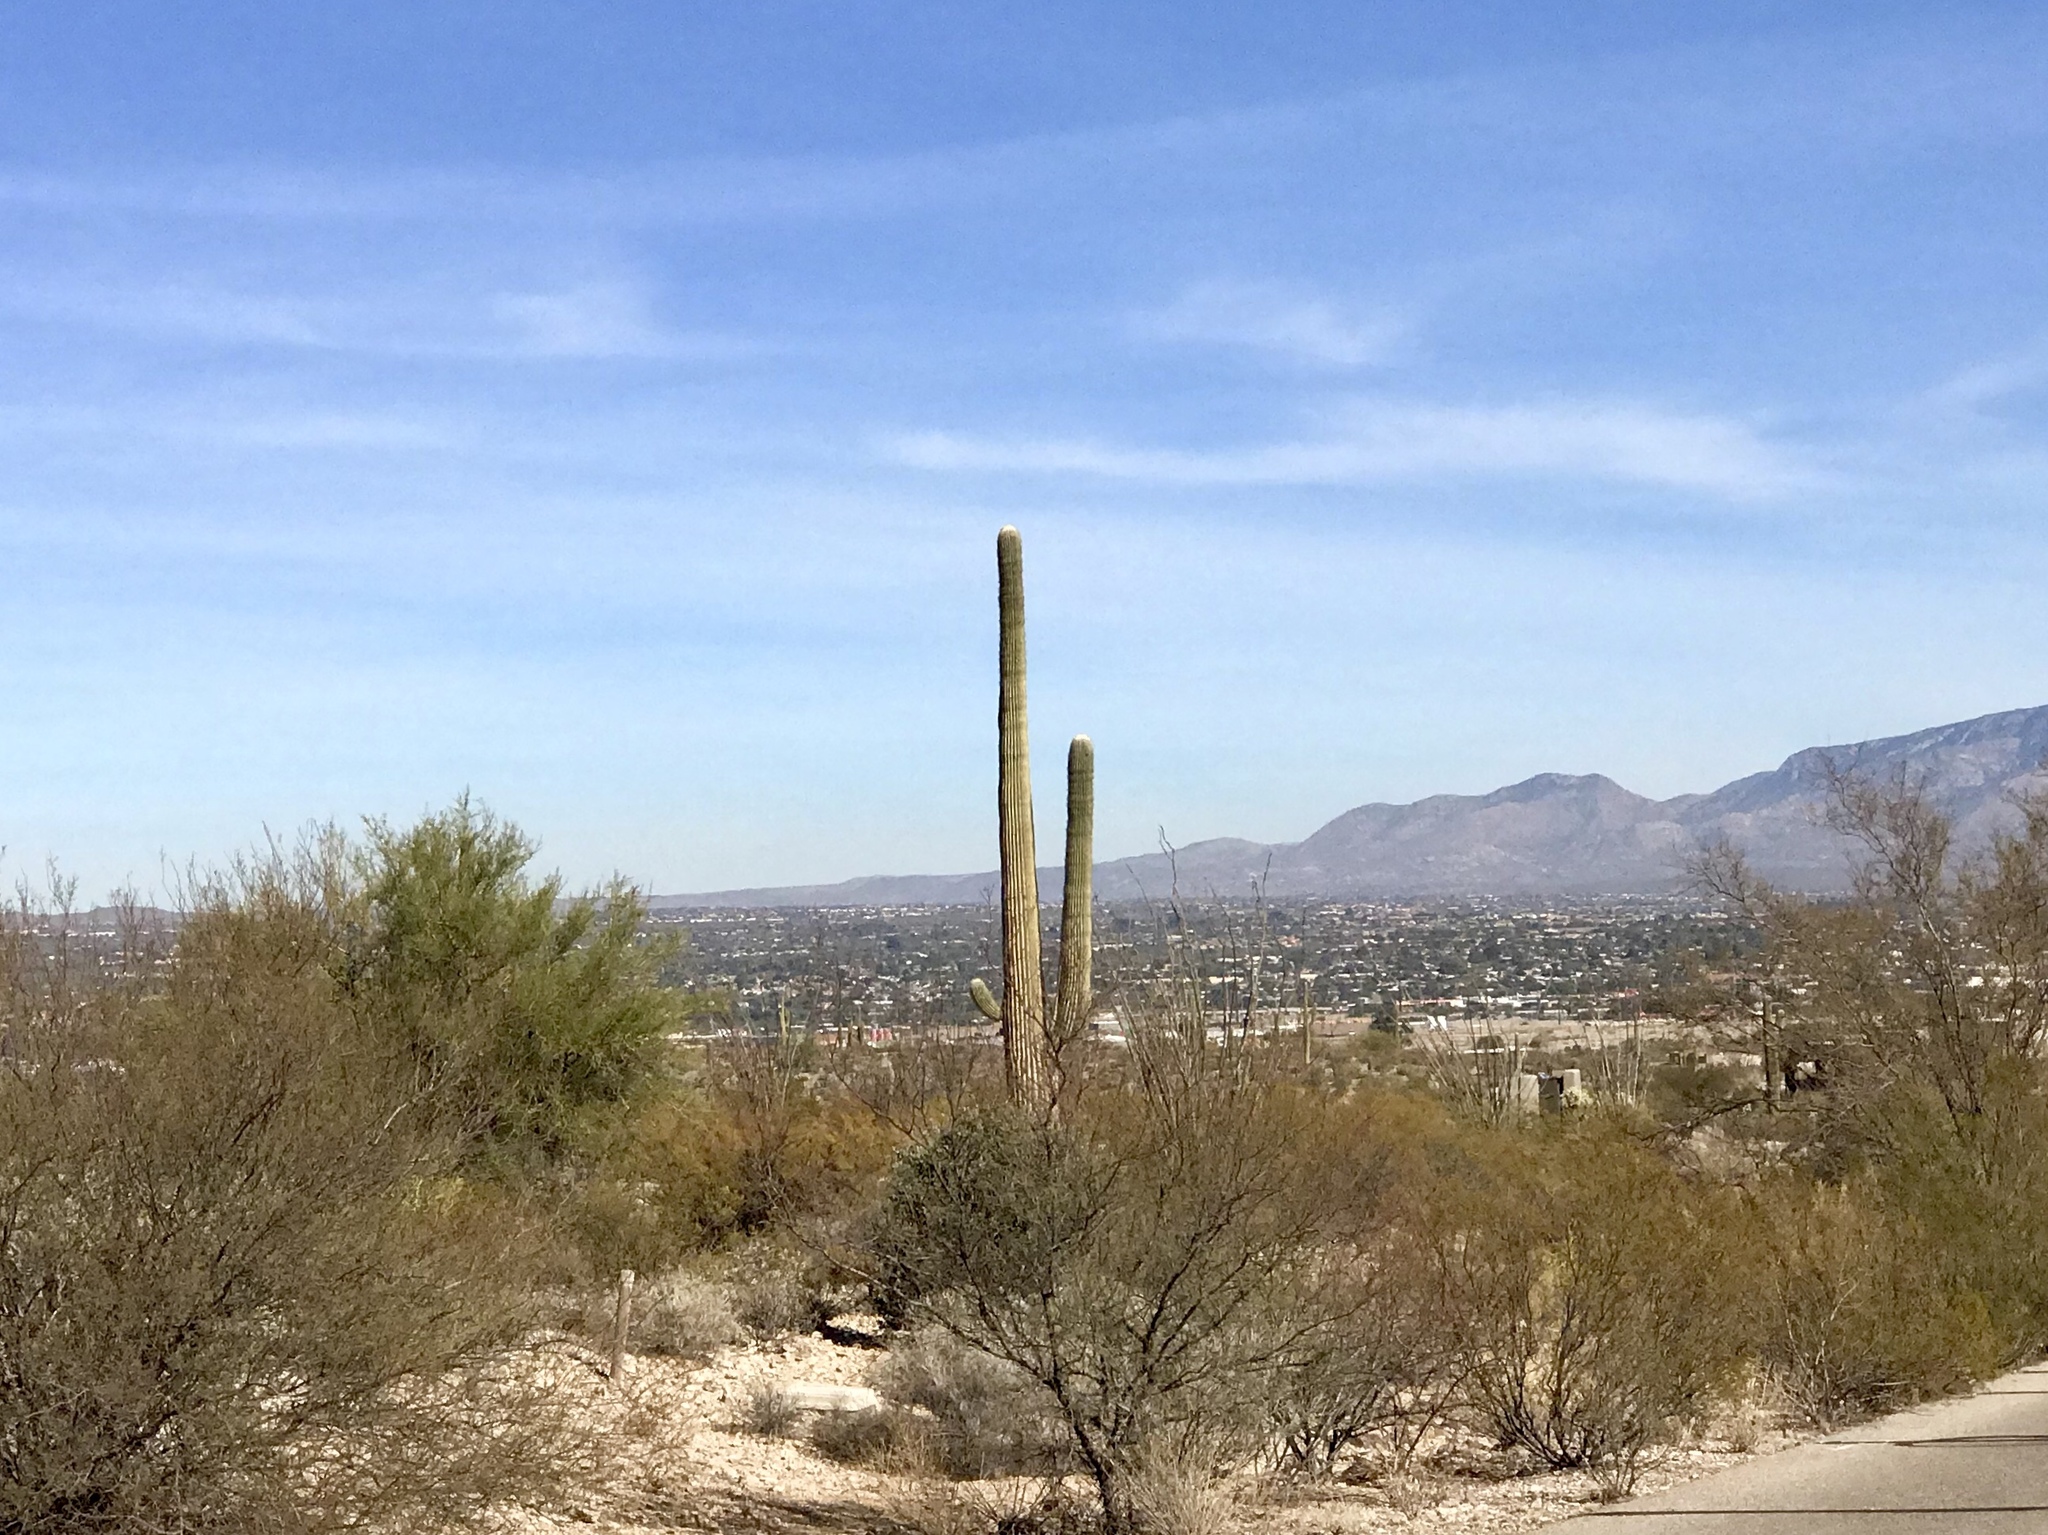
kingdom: Plantae
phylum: Tracheophyta
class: Magnoliopsida
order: Caryophyllales
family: Cactaceae
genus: Carnegiea
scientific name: Carnegiea gigantea
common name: Saguaro
